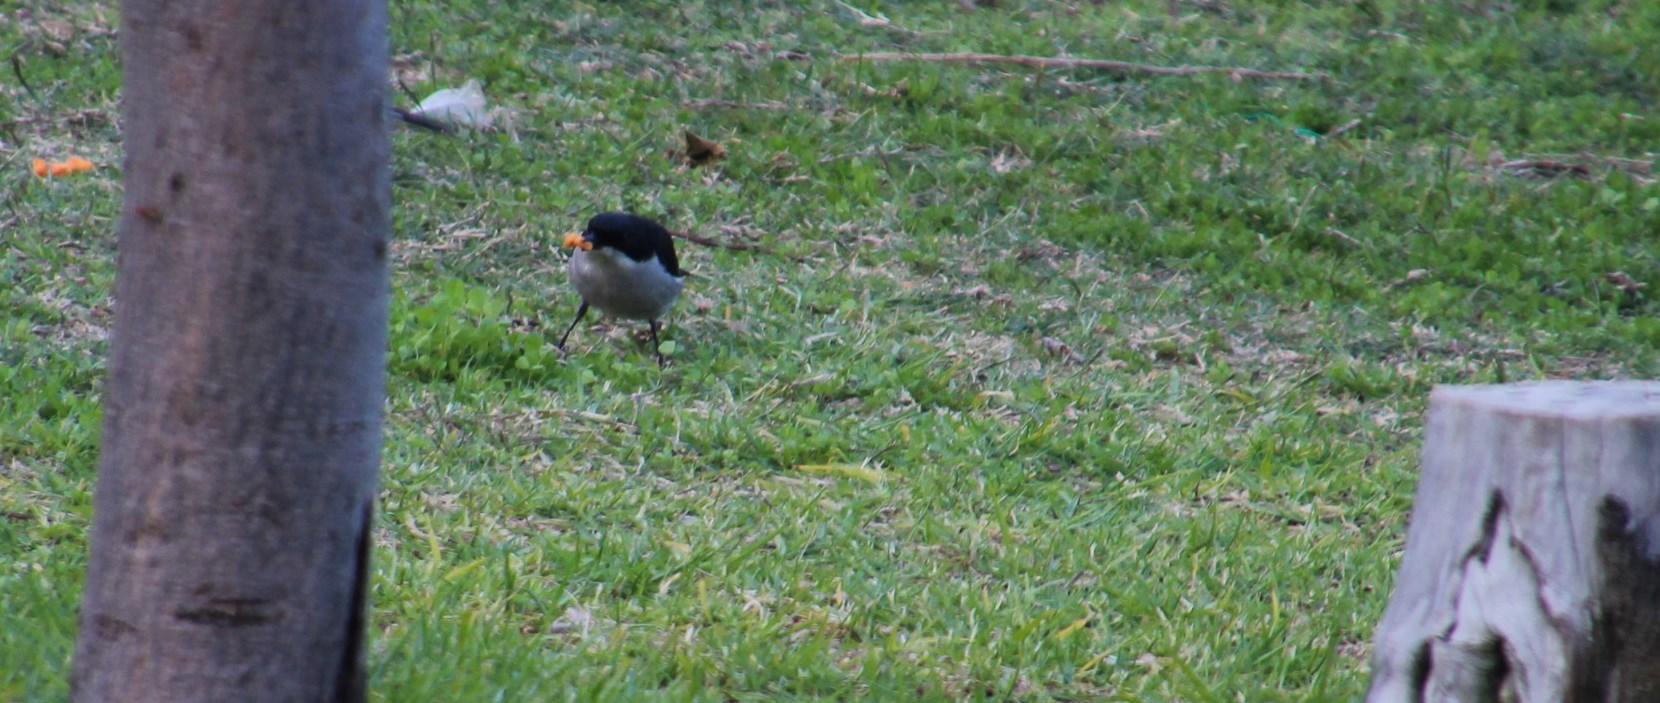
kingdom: Animalia
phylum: Chordata
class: Aves
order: Passeriformes
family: Muscicapidae
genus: Sigelus
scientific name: Sigelus silens
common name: Fiscal flycatcher
